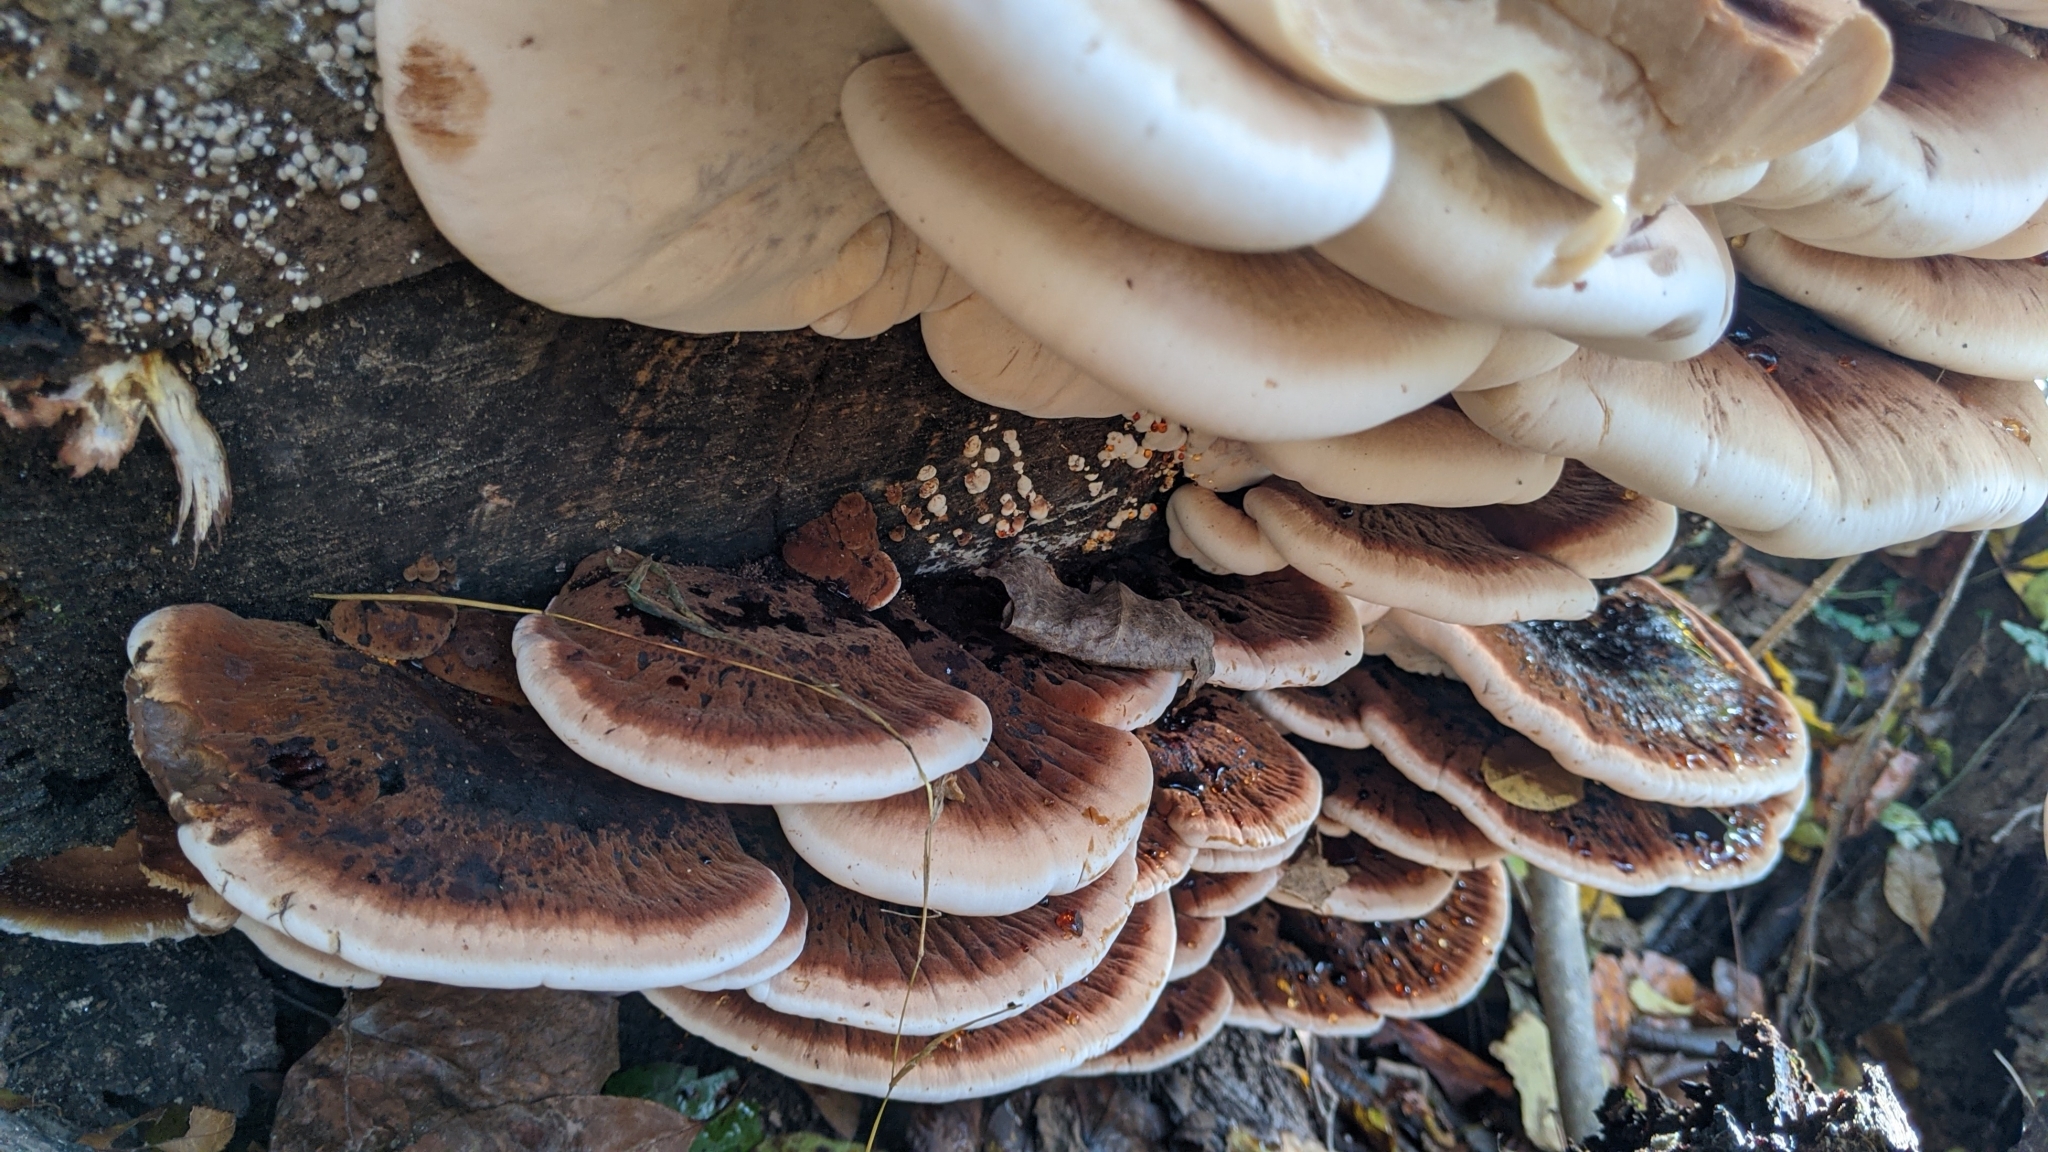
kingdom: Fungi
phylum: Basidiomycota
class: Agaricomycetes
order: Polyporales
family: Ischnodermataceae
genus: Ischnoderma
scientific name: Ischnoderma resinosum
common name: Resinous polypore
